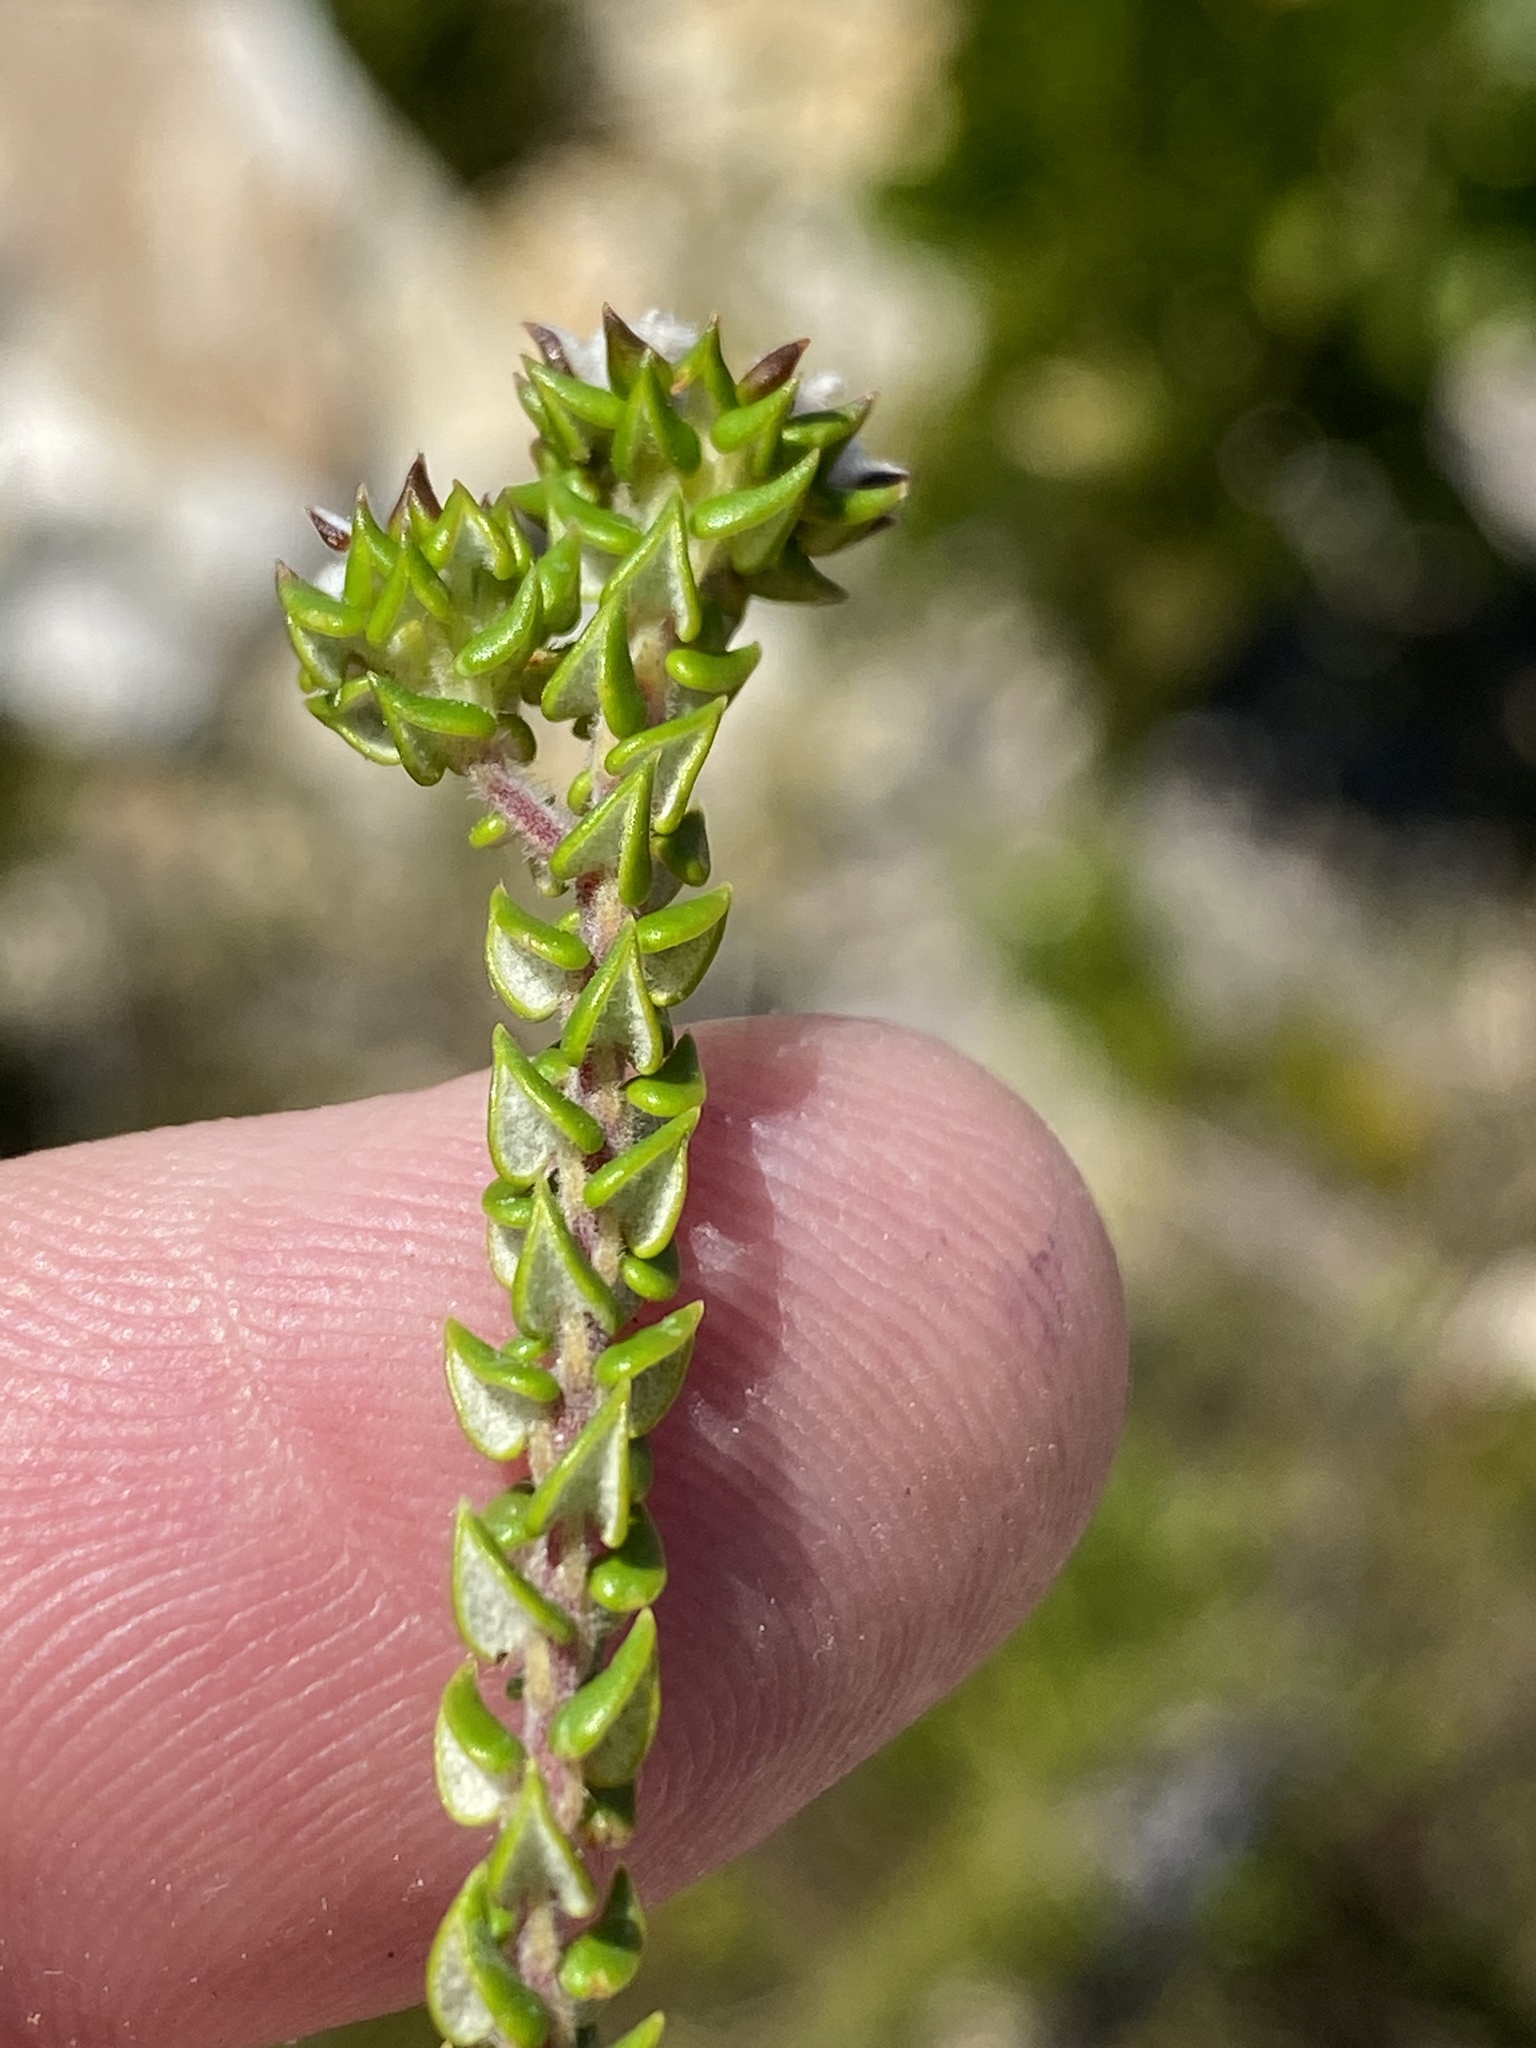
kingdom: Plantae
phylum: Tracheophyta
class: Magnoliopsida
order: Rosales
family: Rhamnaceae
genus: Phylica
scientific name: Phylica debilis
